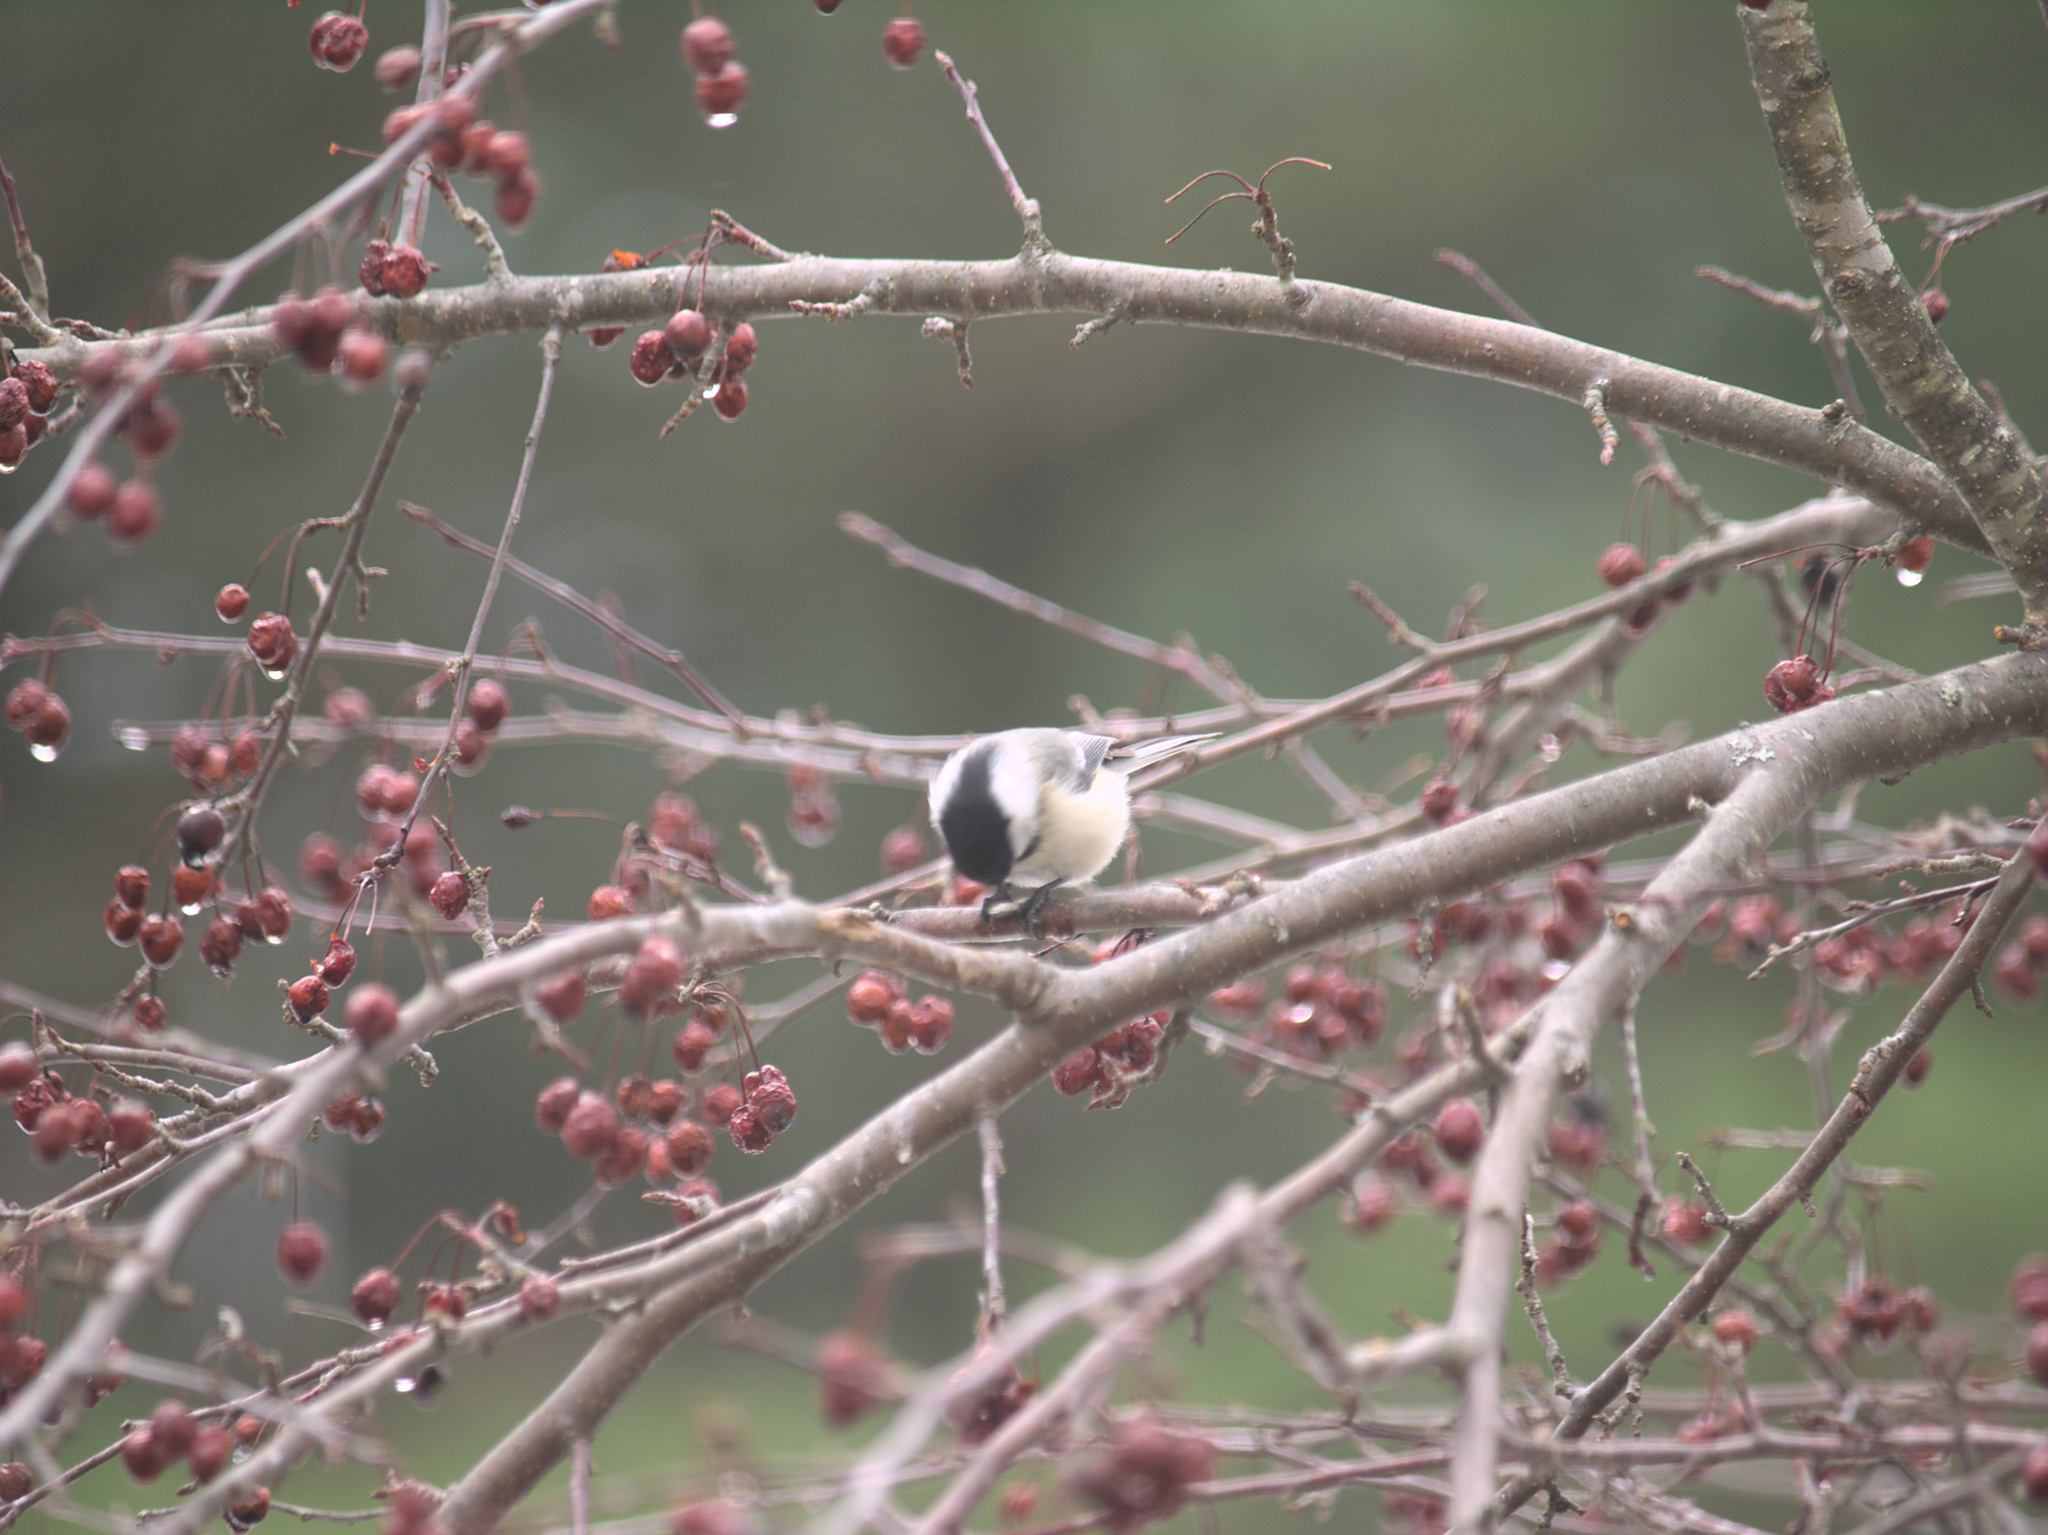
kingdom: Animalia
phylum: Chordata
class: Aves
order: Passeriformes
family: Paridae
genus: Poecile
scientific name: Poecile atricapillus
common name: Black-capped chickadee
